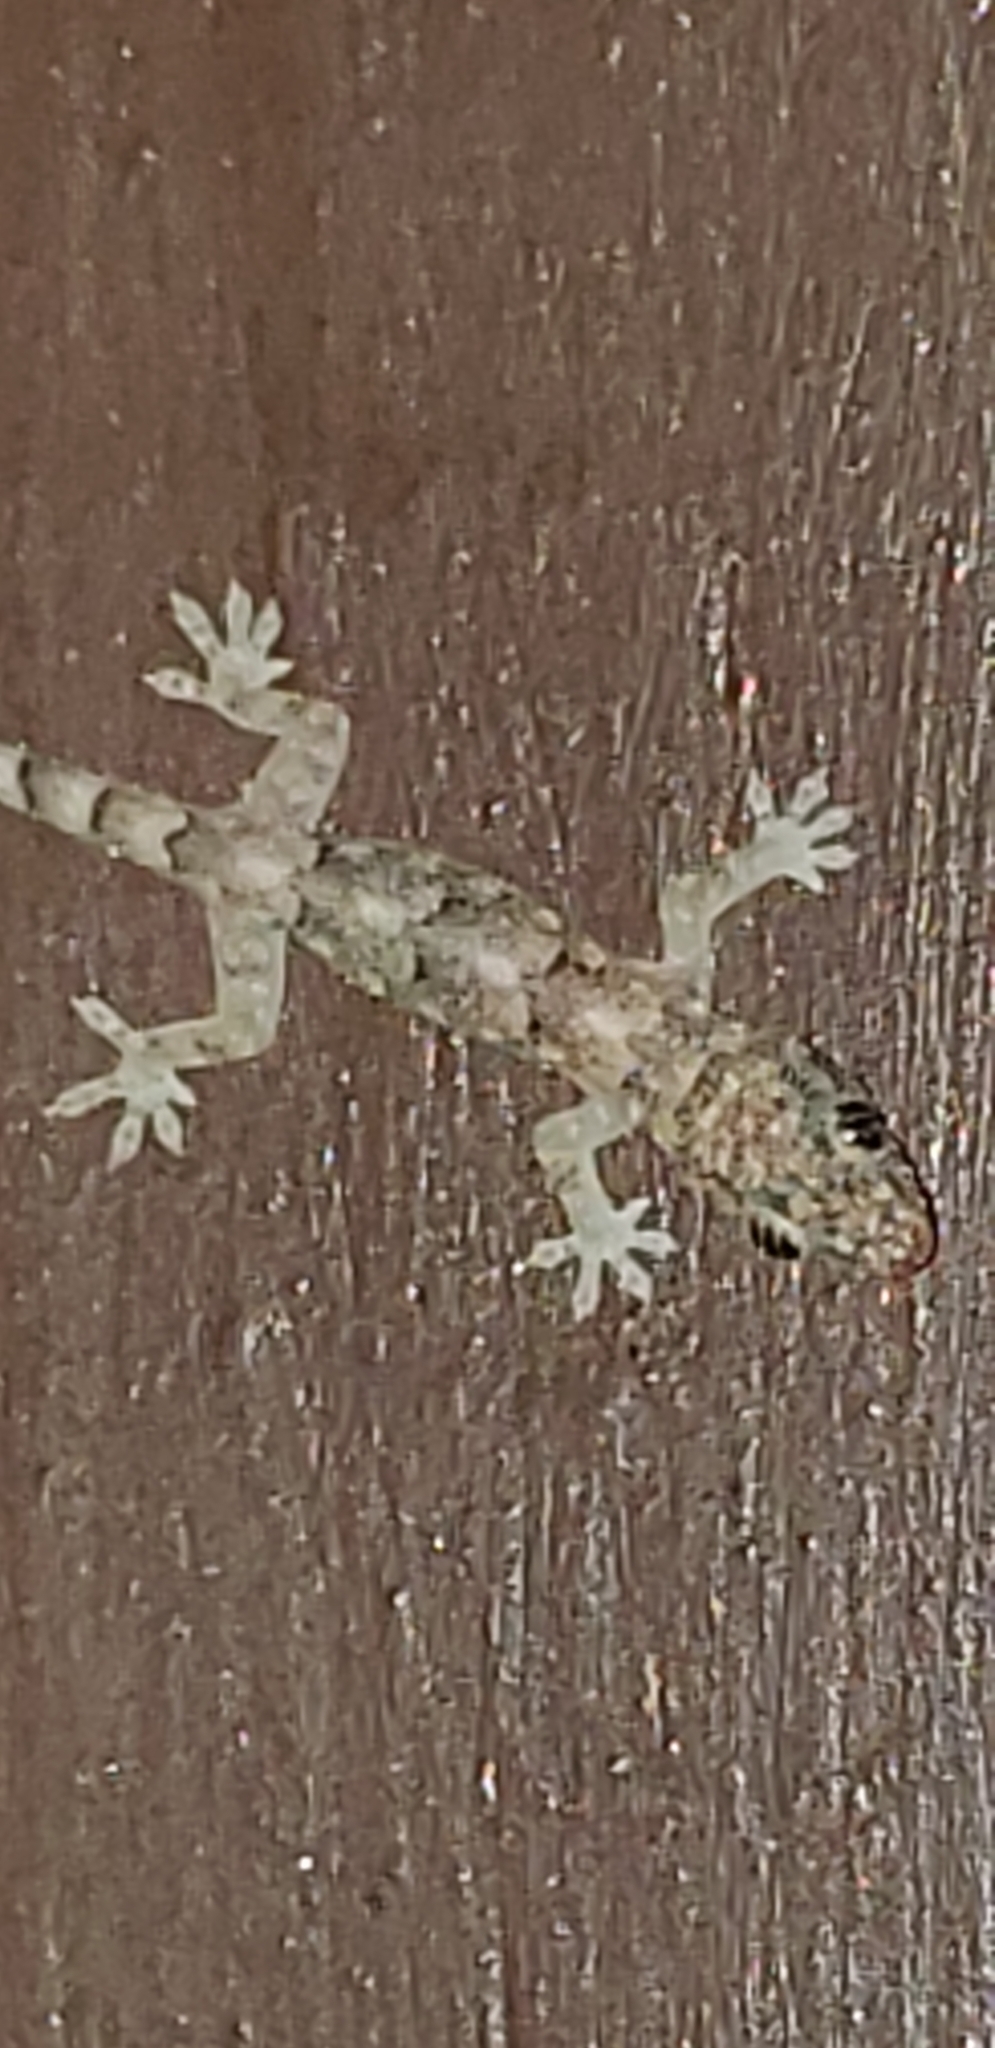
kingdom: Animalia
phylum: Chordata
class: Squamata
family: Gekkonidae
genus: Hemidactylus
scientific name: Hemidactylus mabouia
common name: House gecko
